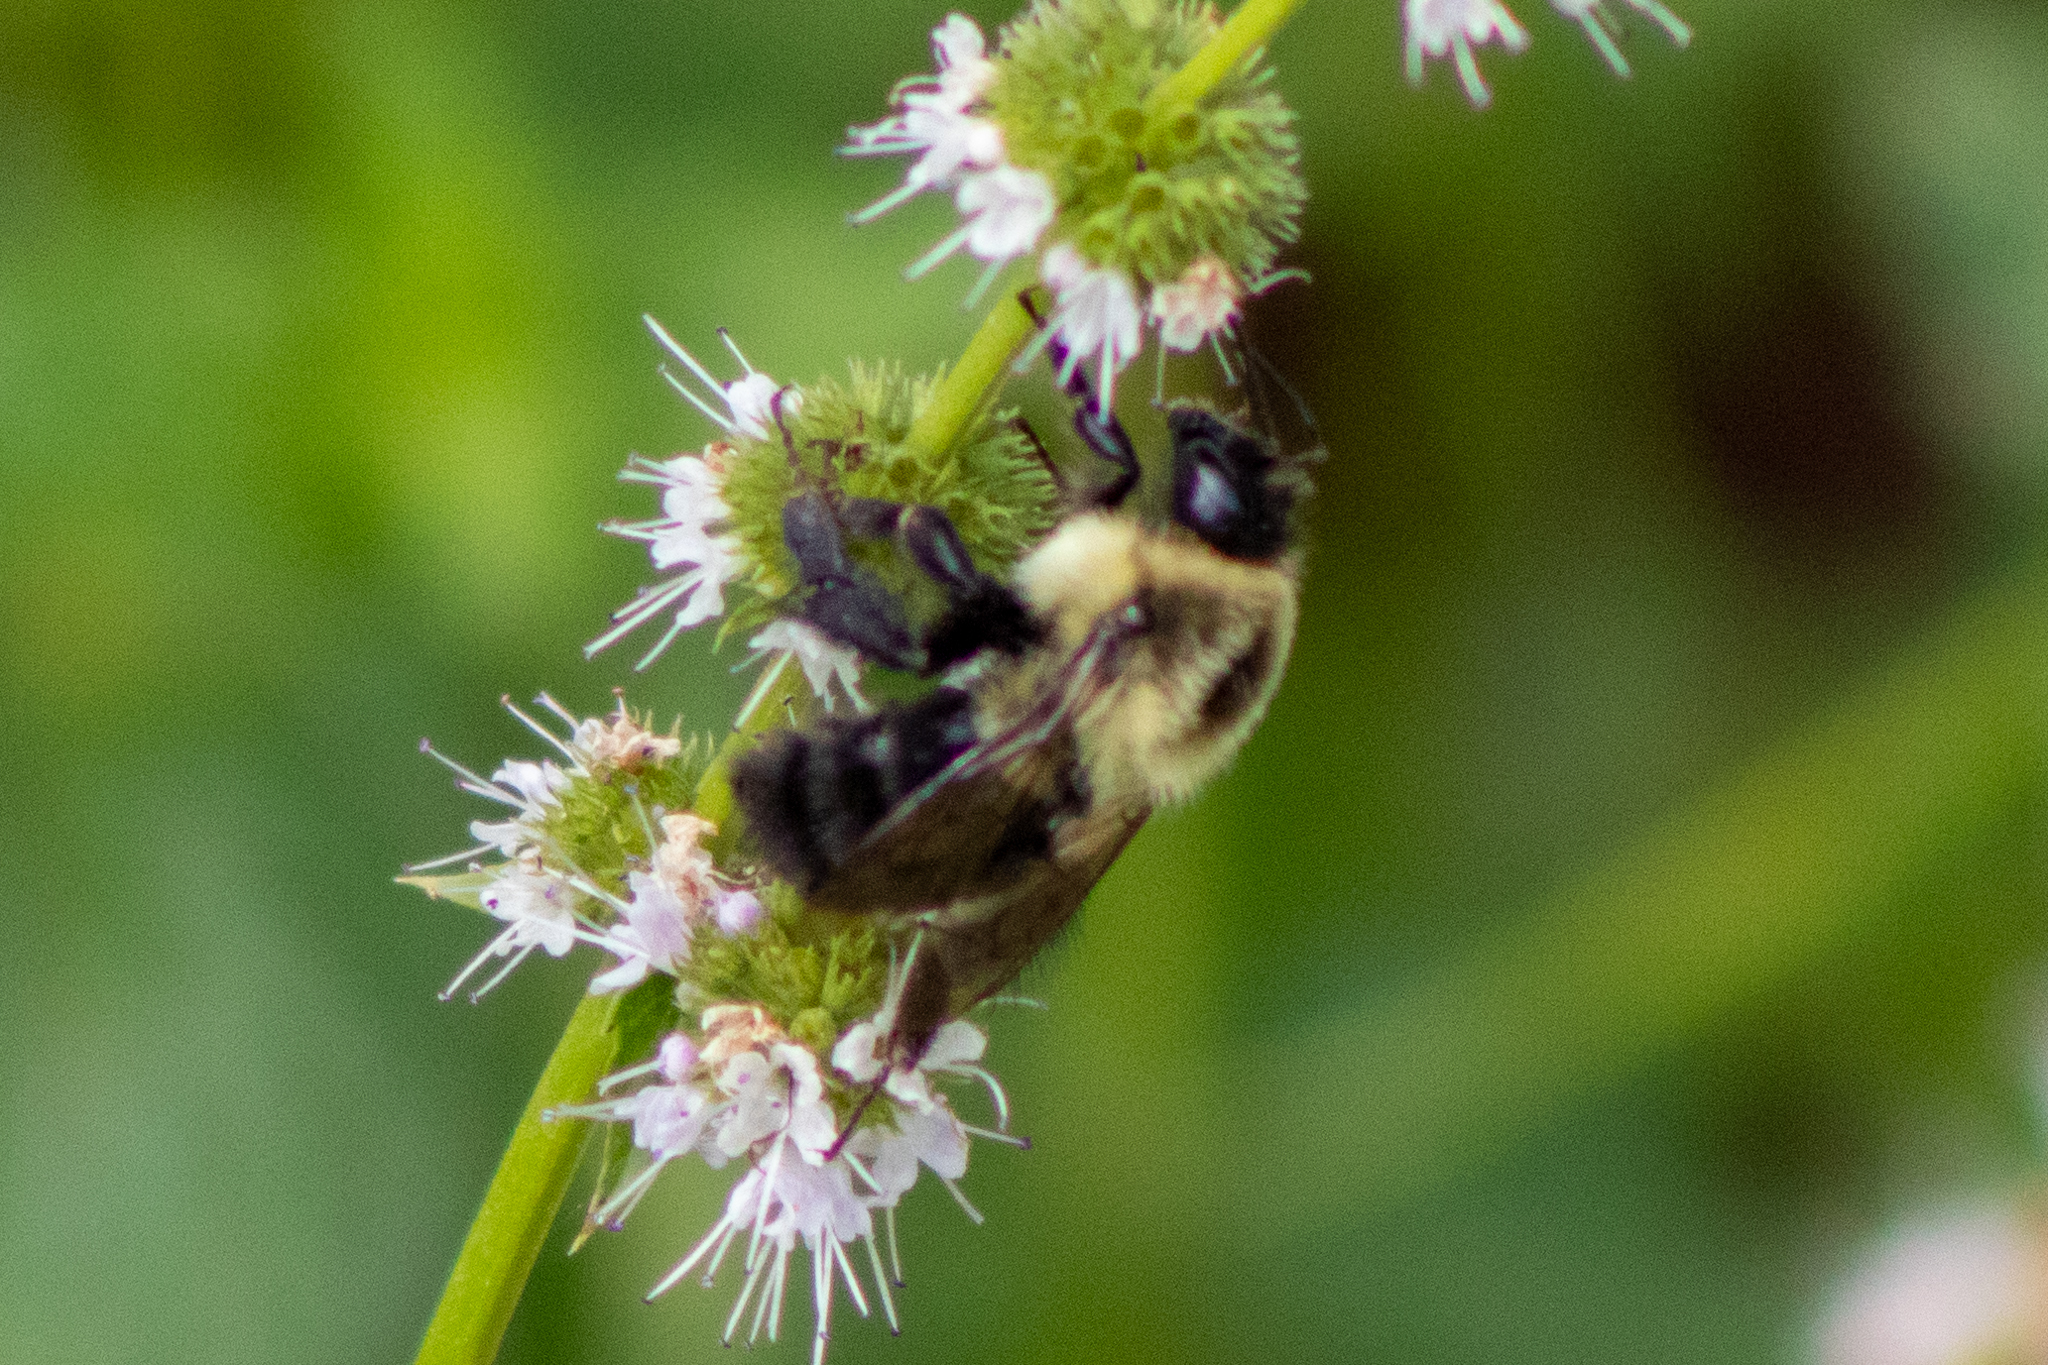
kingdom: Animalia
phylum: Arthropoda
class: Insecta
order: Hymenoptera
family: Apidae
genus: Bombus
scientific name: Bombus impatiens
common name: Common eastern bumble bee
